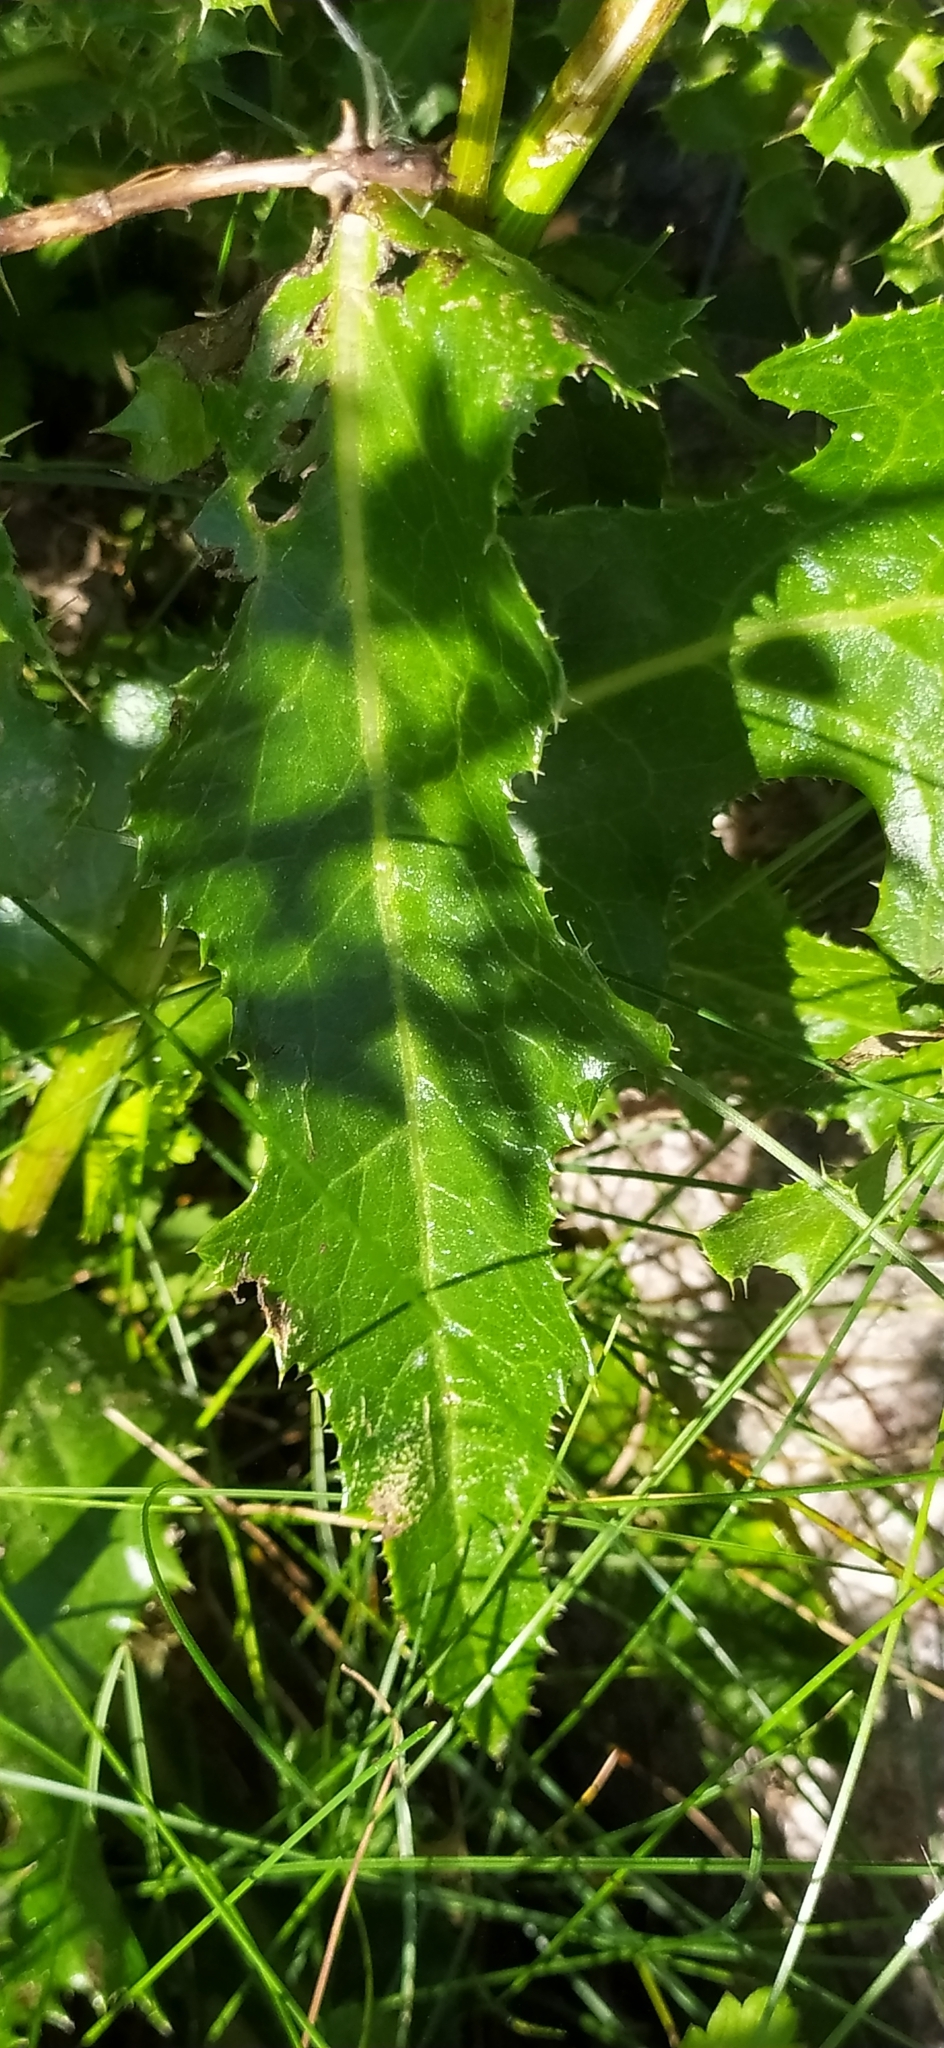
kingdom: Plantae
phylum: Tracheophyta
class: Magnoliopsida
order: Asterales
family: Asteraceae
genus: Sonchus
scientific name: Sonchus arvensis
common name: Perennial sow-thistle
